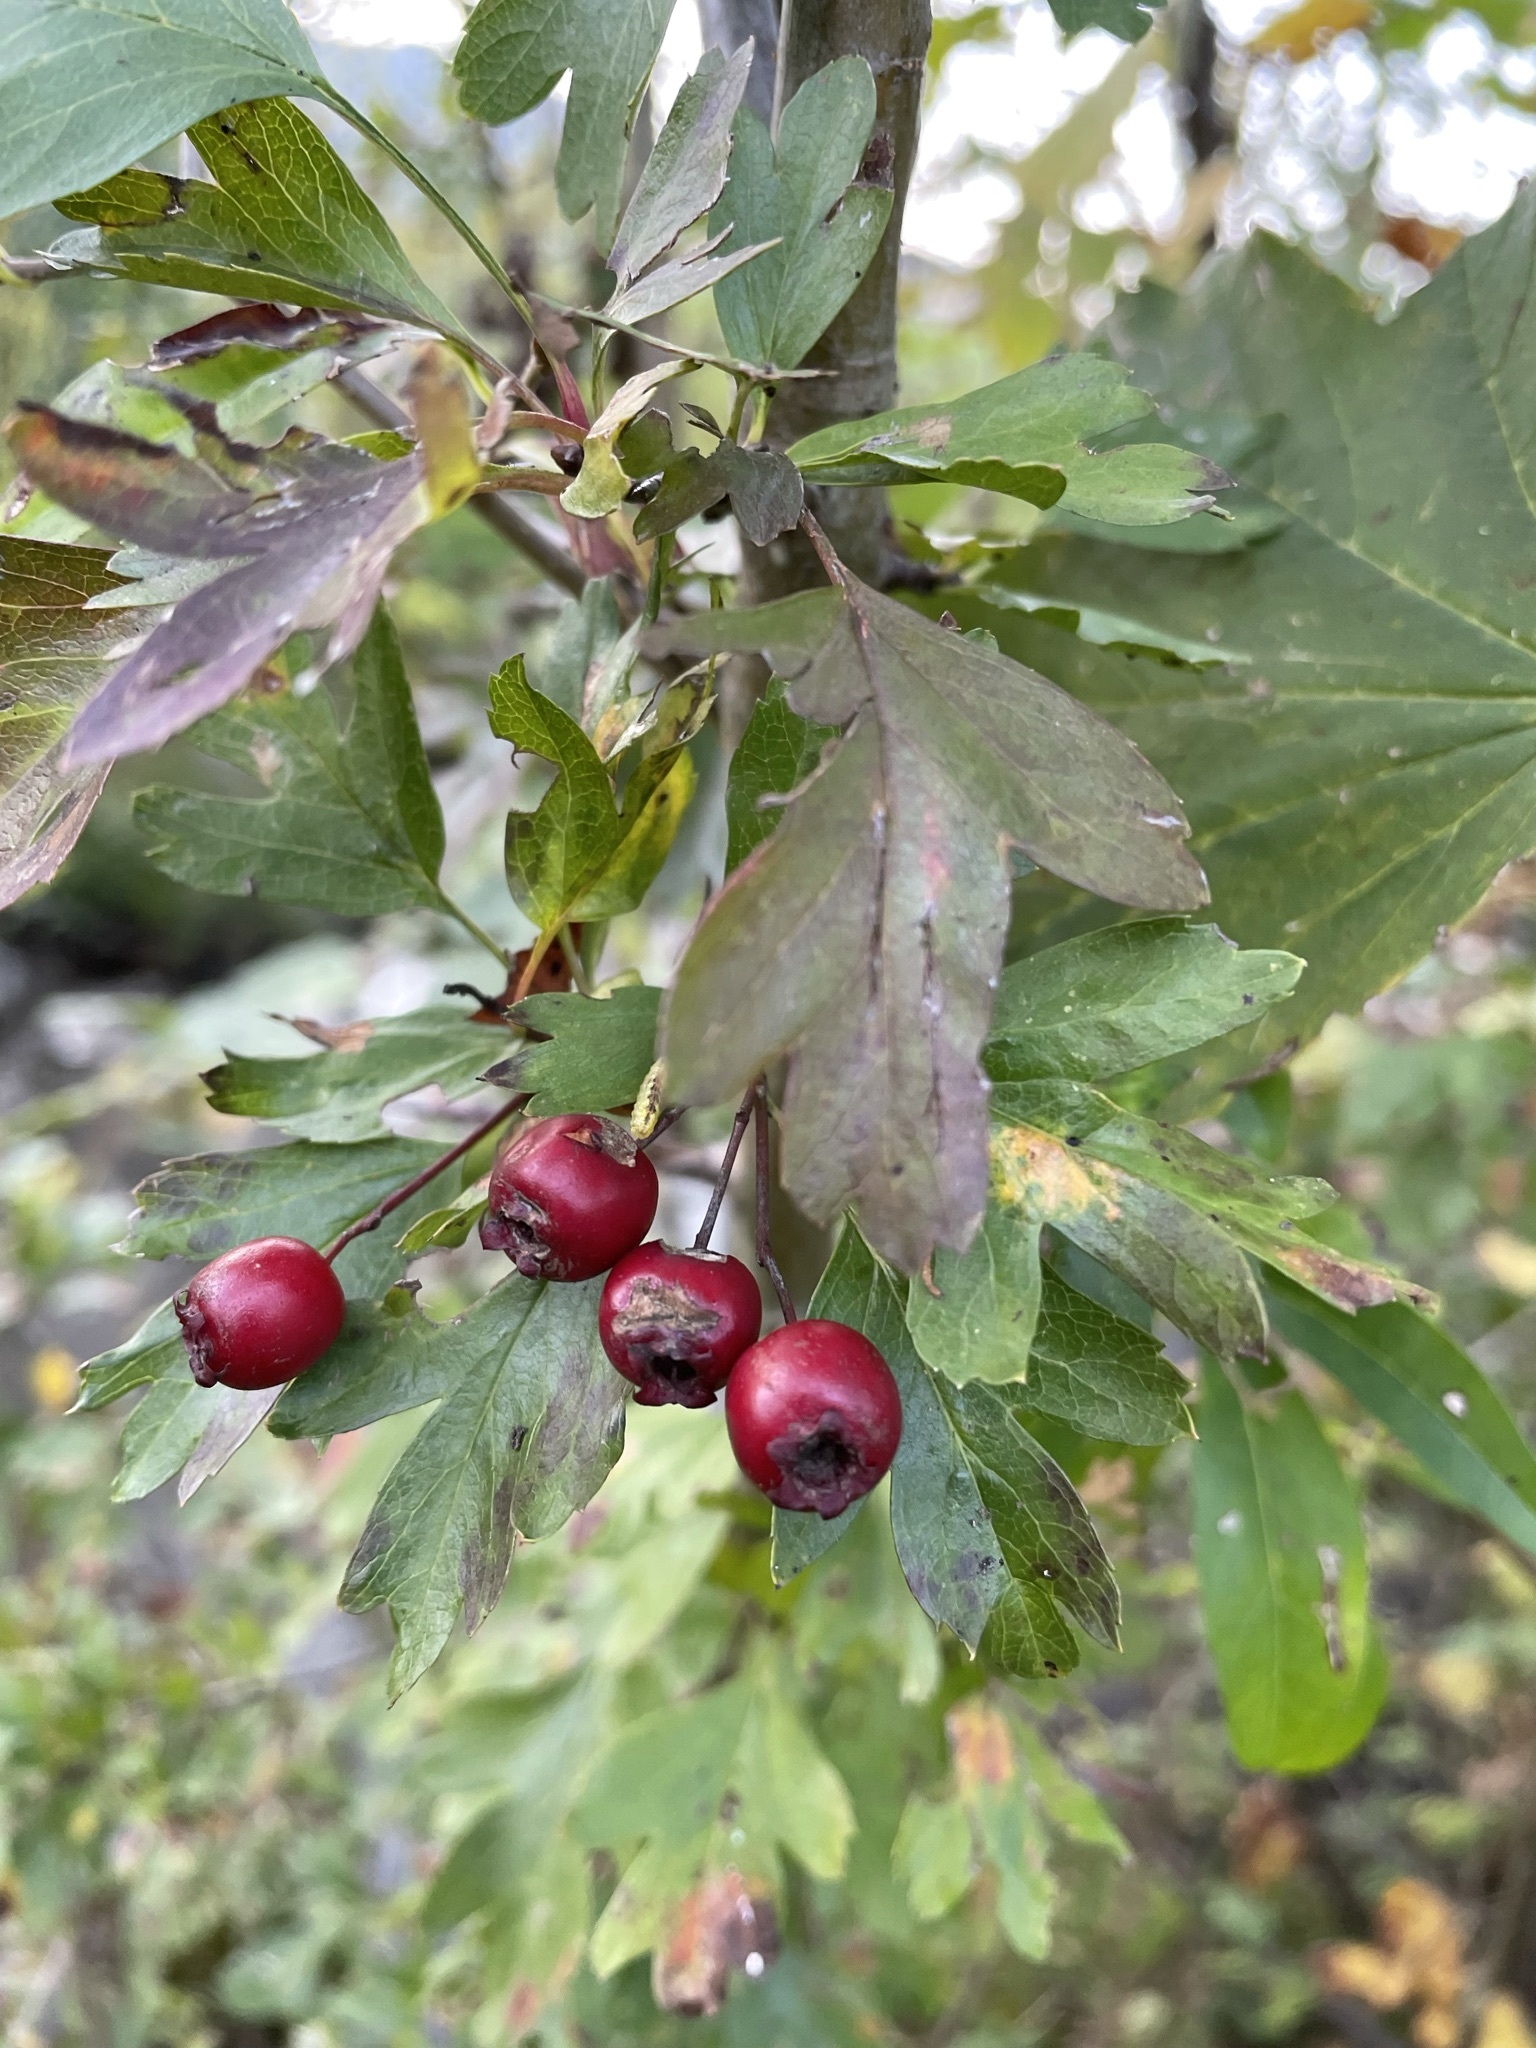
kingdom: Plantae
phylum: Tracheophyta
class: Magnoliopsida
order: Rosales
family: Rosaceae
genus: Crataegus
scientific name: Crataegus monogyna
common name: Hawthorn
